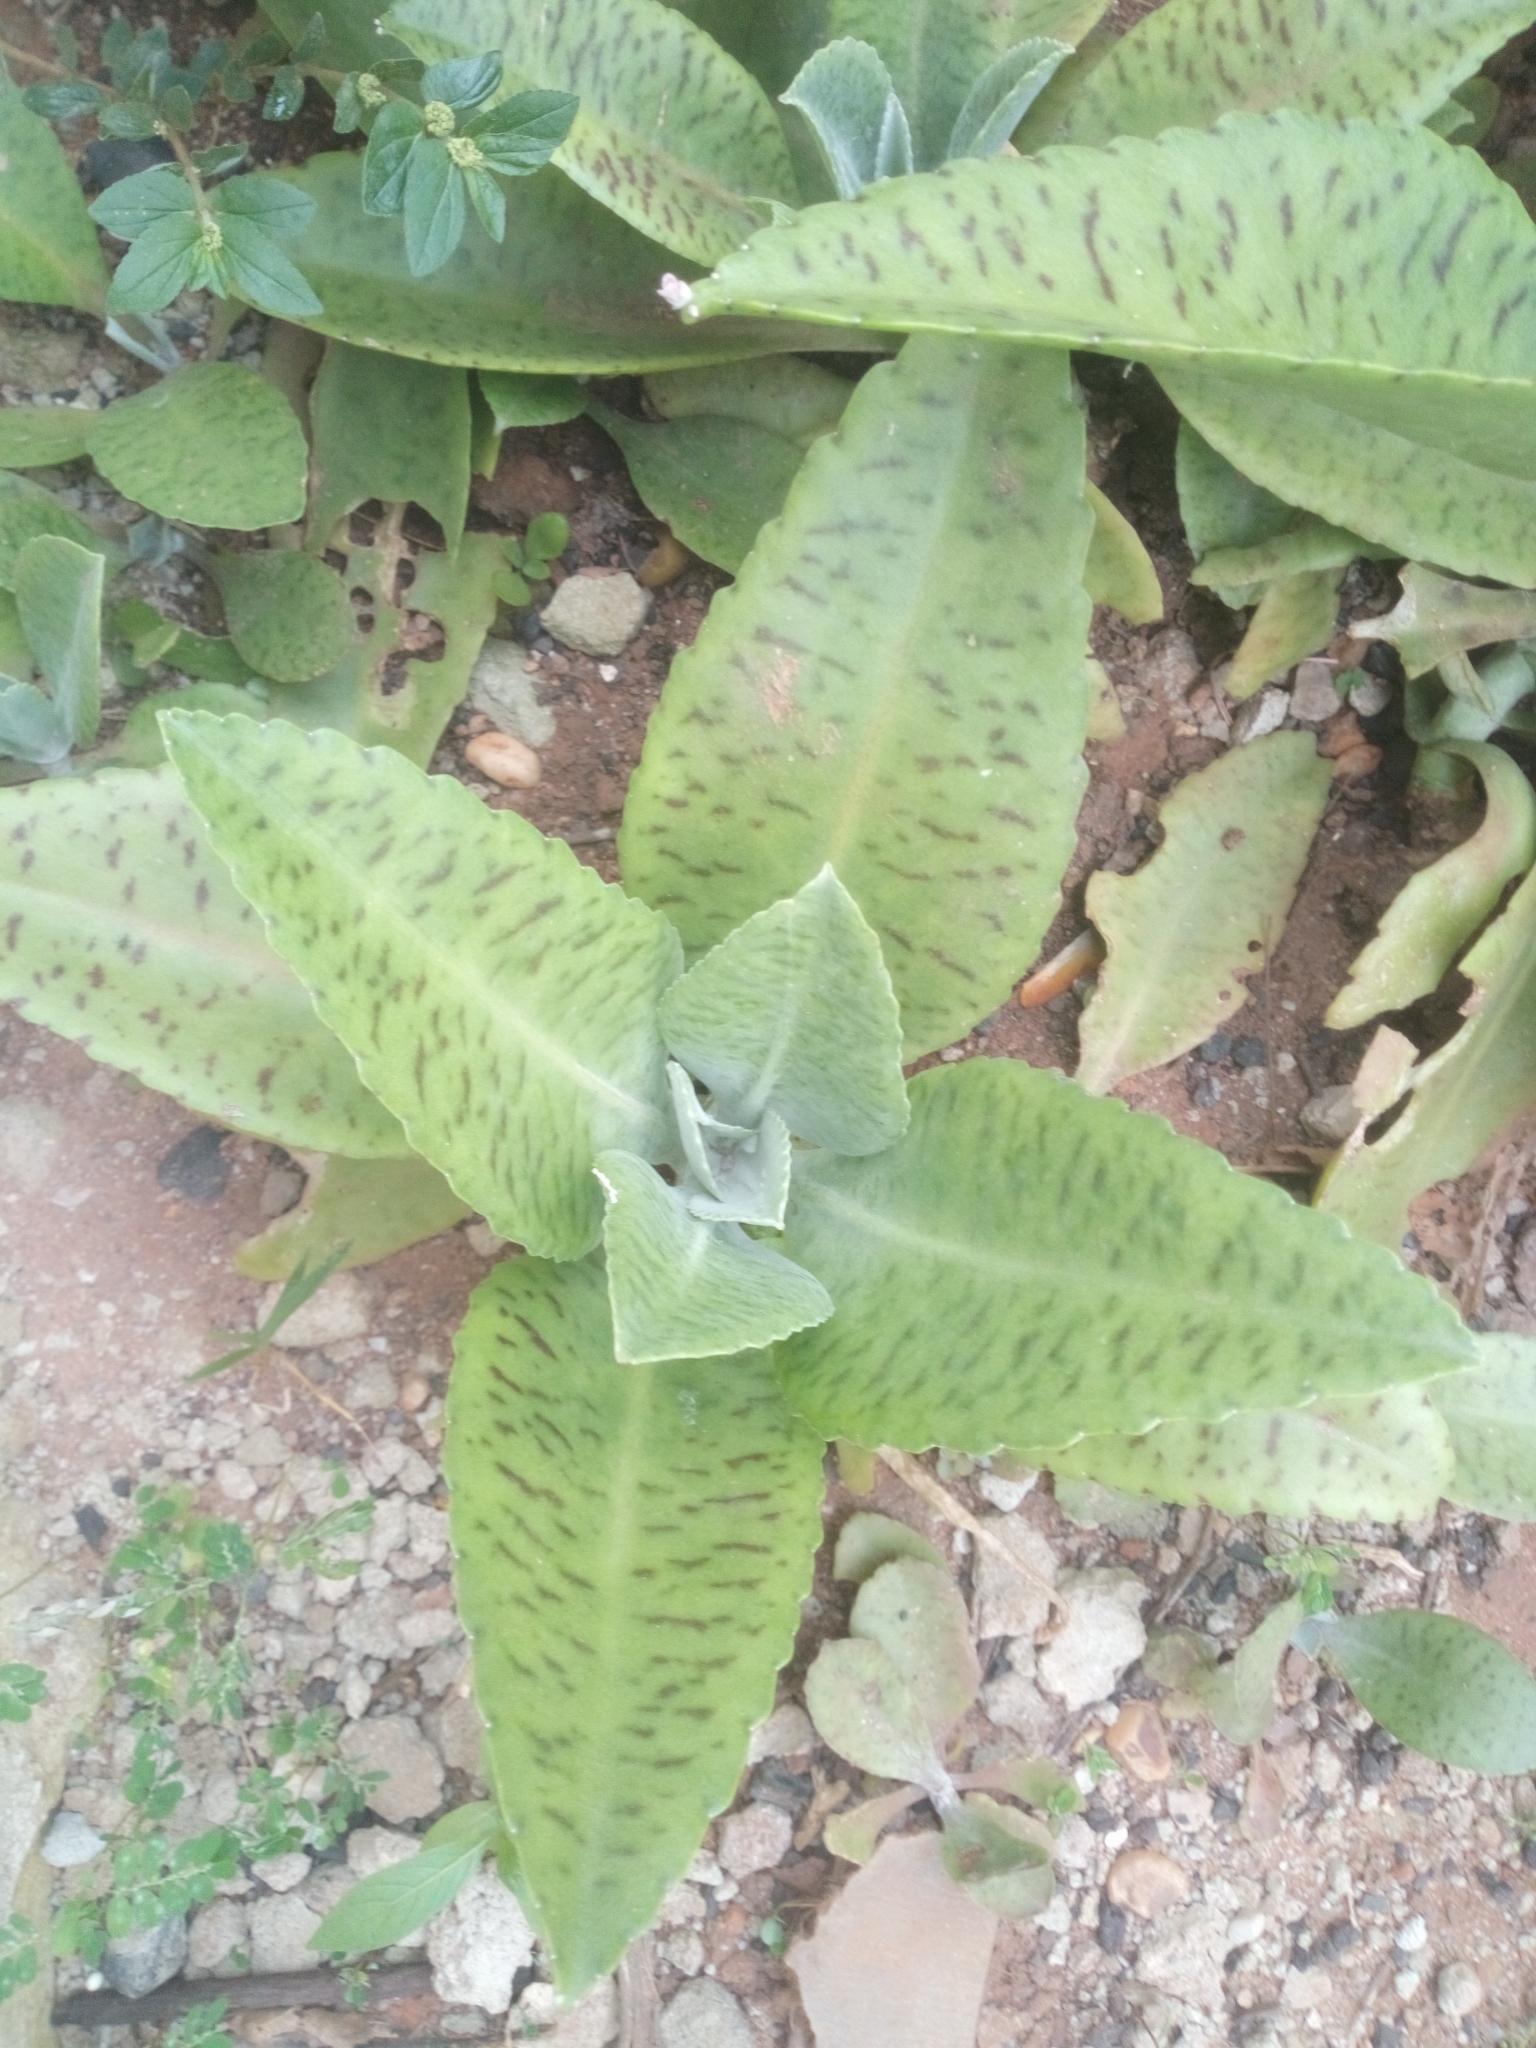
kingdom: Plantae
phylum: Tracheophyta
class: Magnoliopsida
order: Saxifragales
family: Crassulaceae
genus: Kalanchoe
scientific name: Kalanchoe gastonis-bonnieri
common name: Palm beachbells
